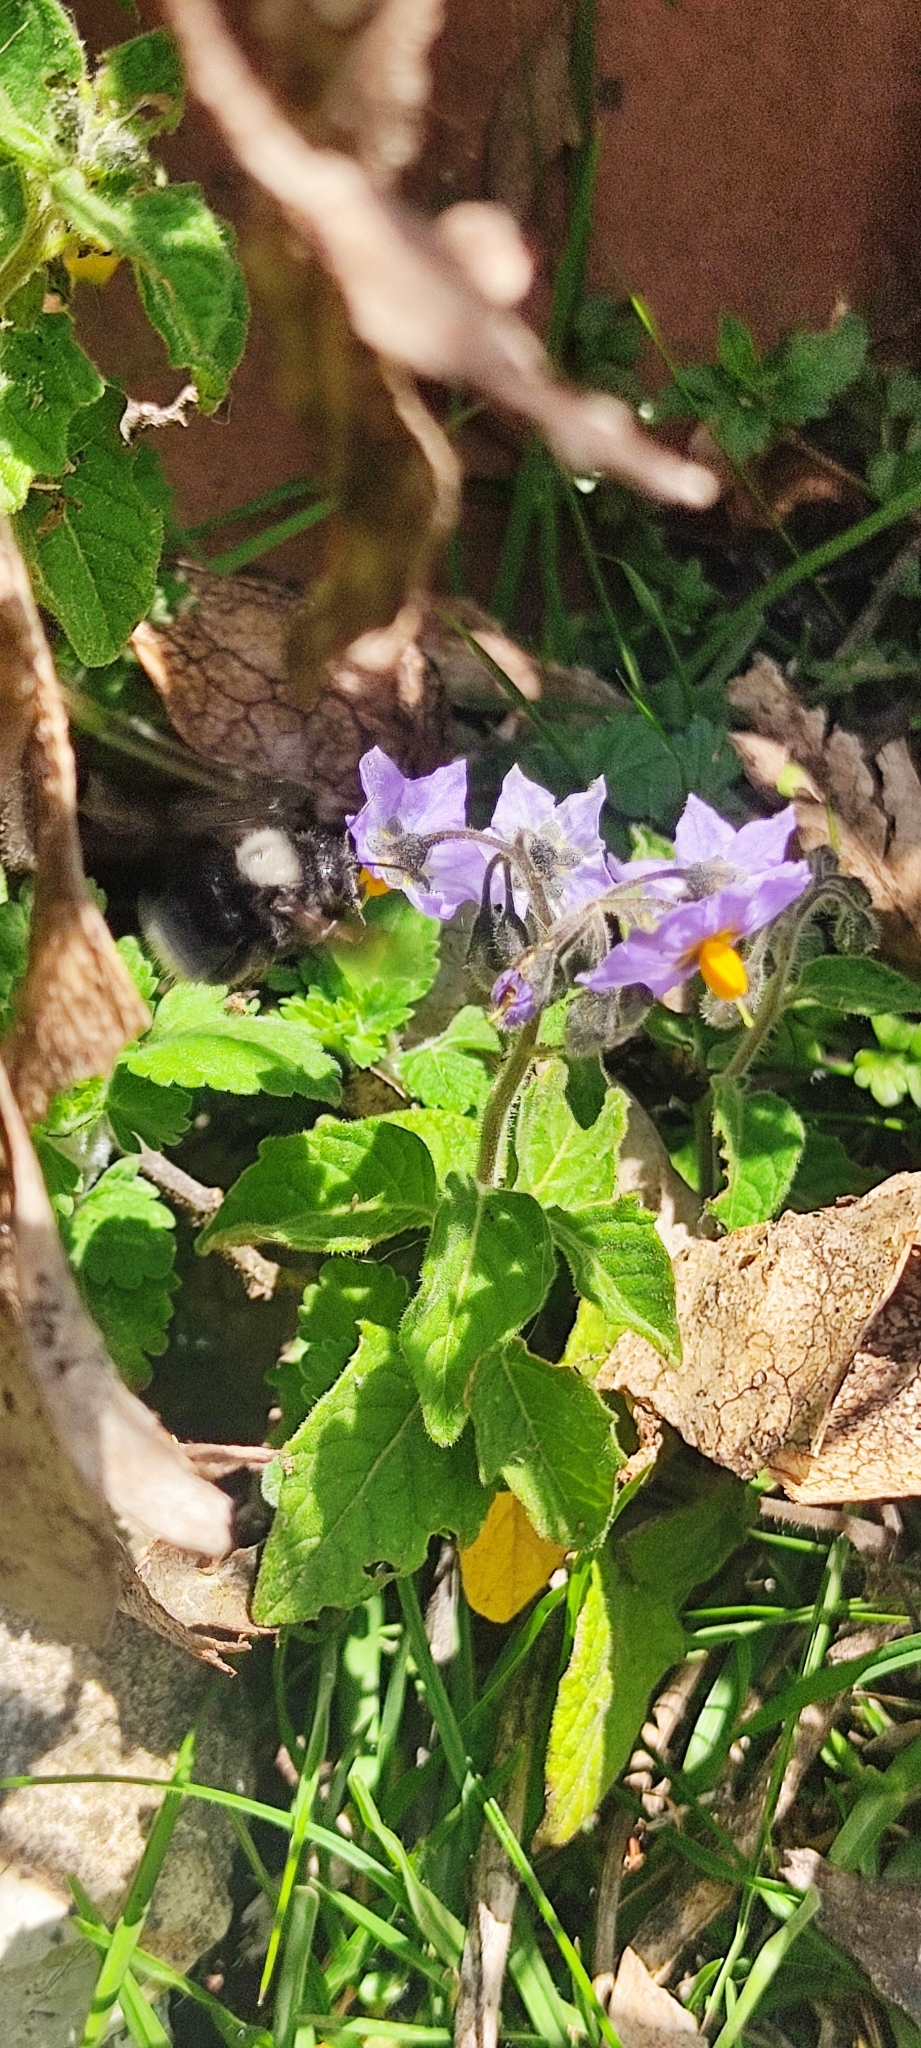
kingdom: Animalia
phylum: Arthropoda
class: Insecta
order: Hymenoptera
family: Apidae
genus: Bombus
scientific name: Bombus funebris
